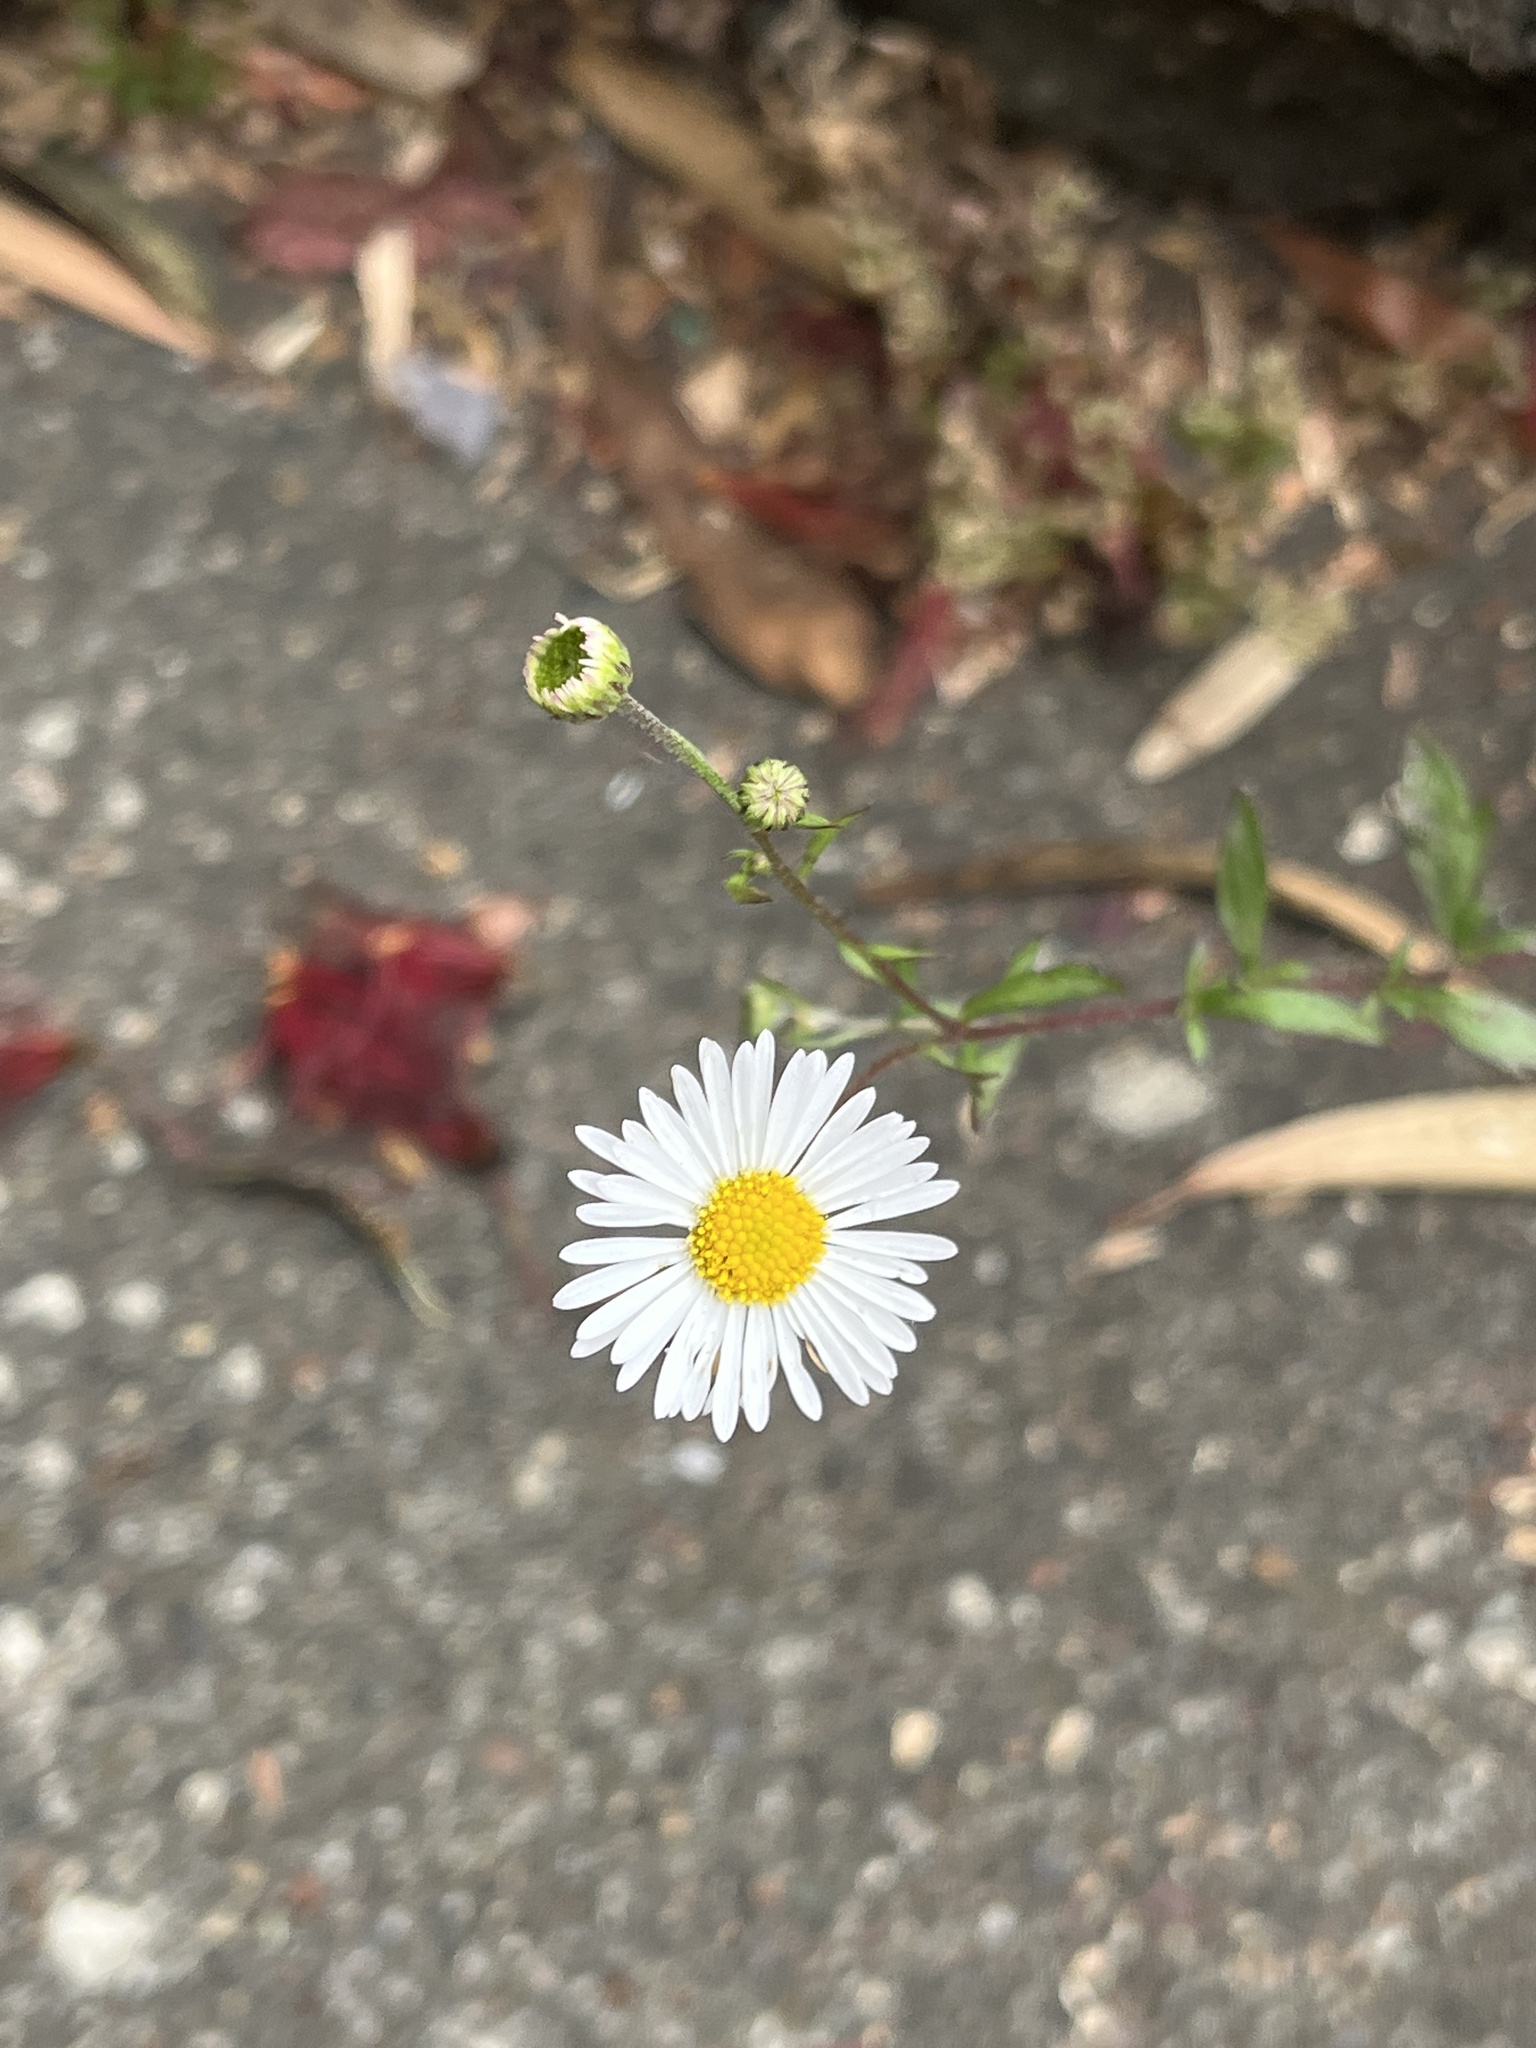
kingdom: Plantae
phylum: Tracheophyta
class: Magnoliopsida
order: Asterales
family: Asteraceae
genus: Erigeron
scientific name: Erigeron karvinskianus
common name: Mexican fleabane
